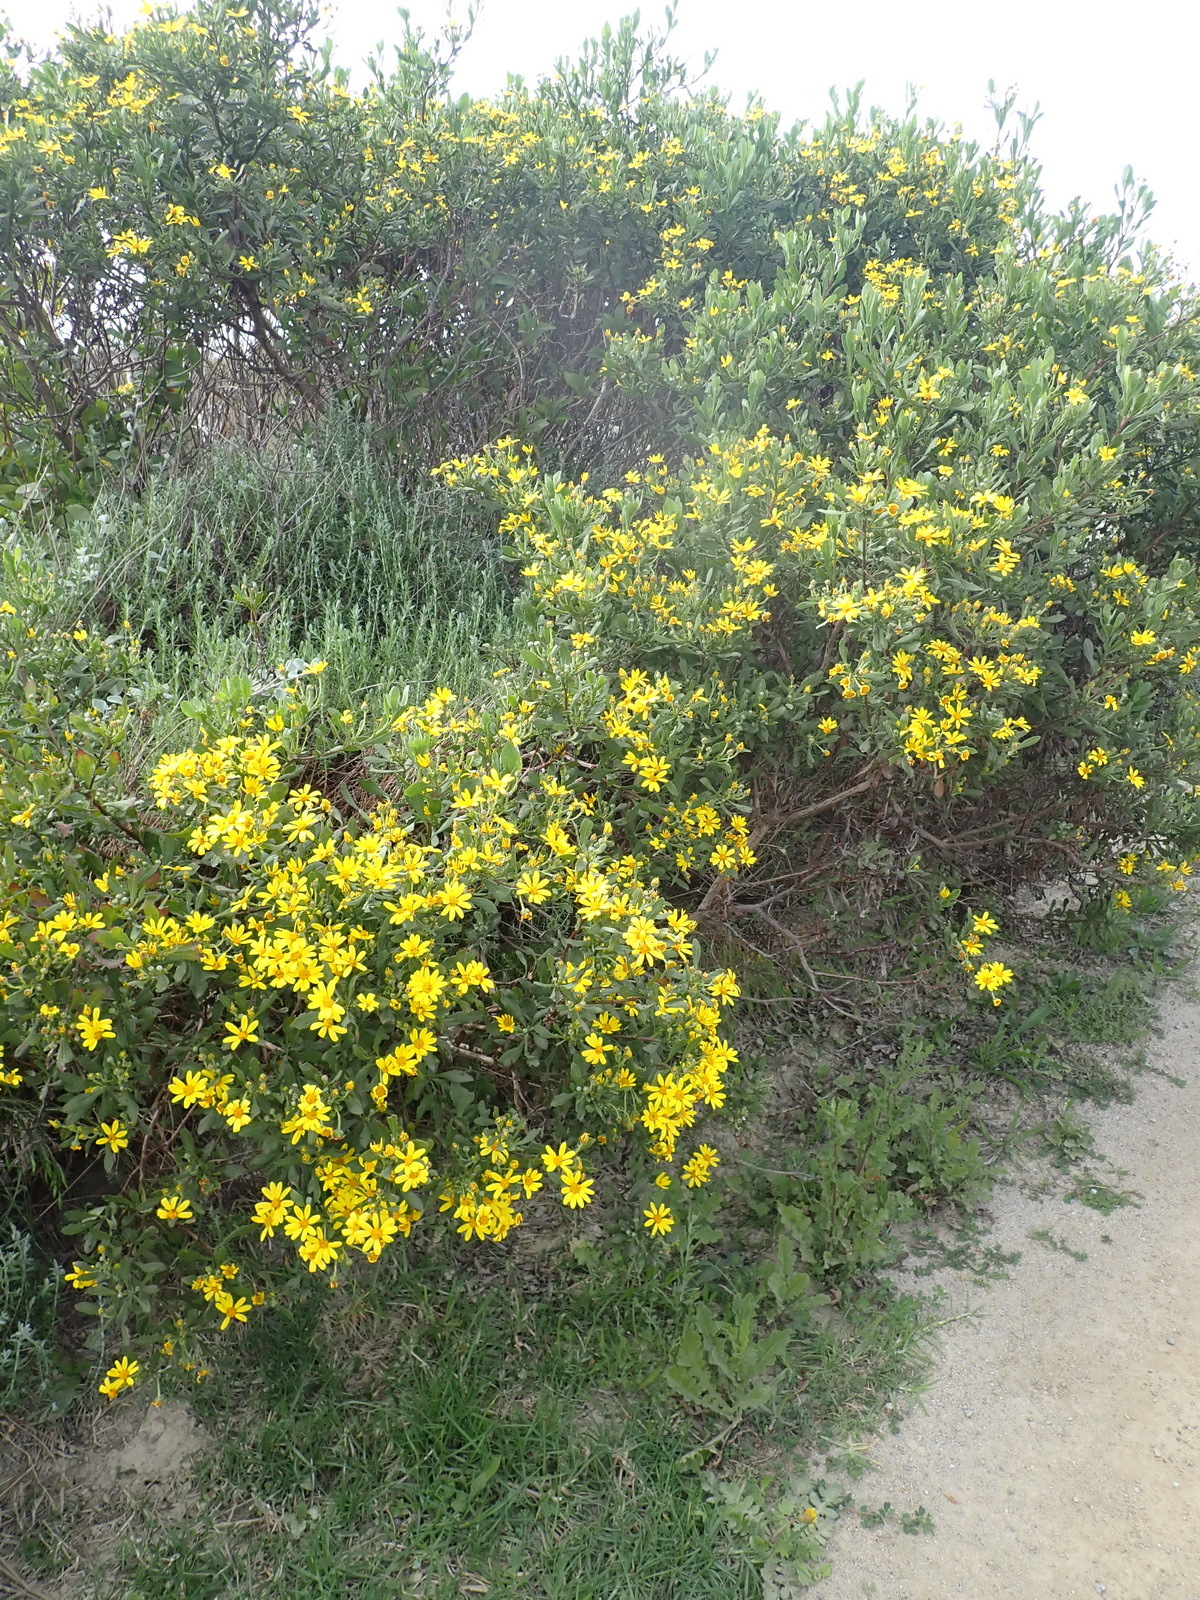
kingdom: Plantae
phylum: Tracheophyta
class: Magnoliopsida
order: Asterales
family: Asteraceae
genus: Osteospermum
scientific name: Osteospermum moniliferum
